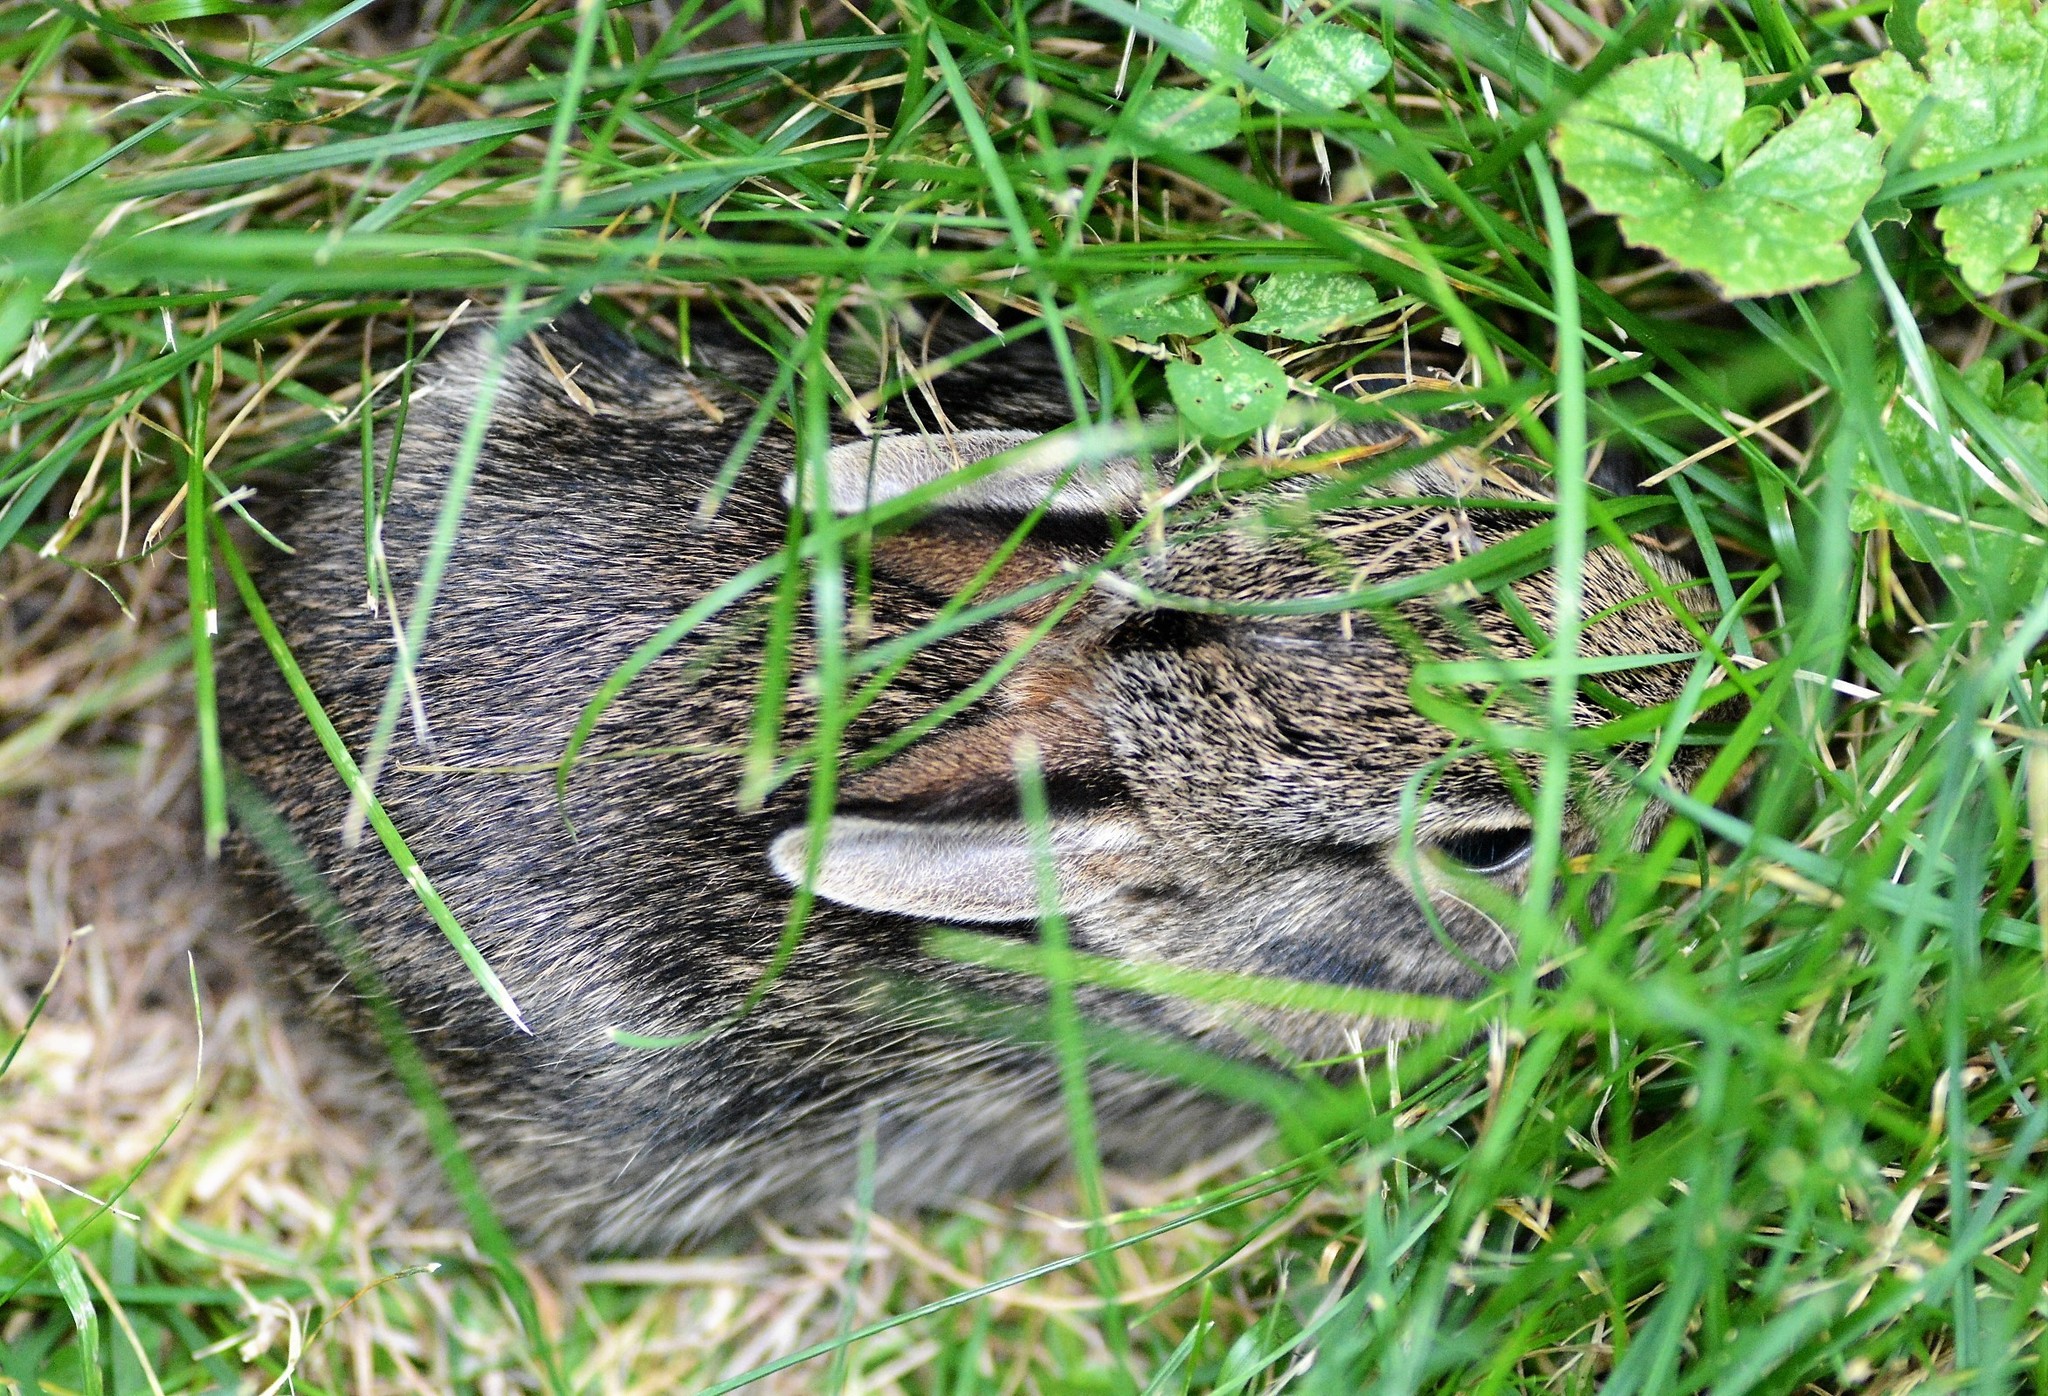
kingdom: Animalia
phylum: Chordata
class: Mammalia
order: Lagomorpha
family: Leporidae
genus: Sylvilagus
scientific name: Sylvilagus floridanus
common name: Eastern cottontail
